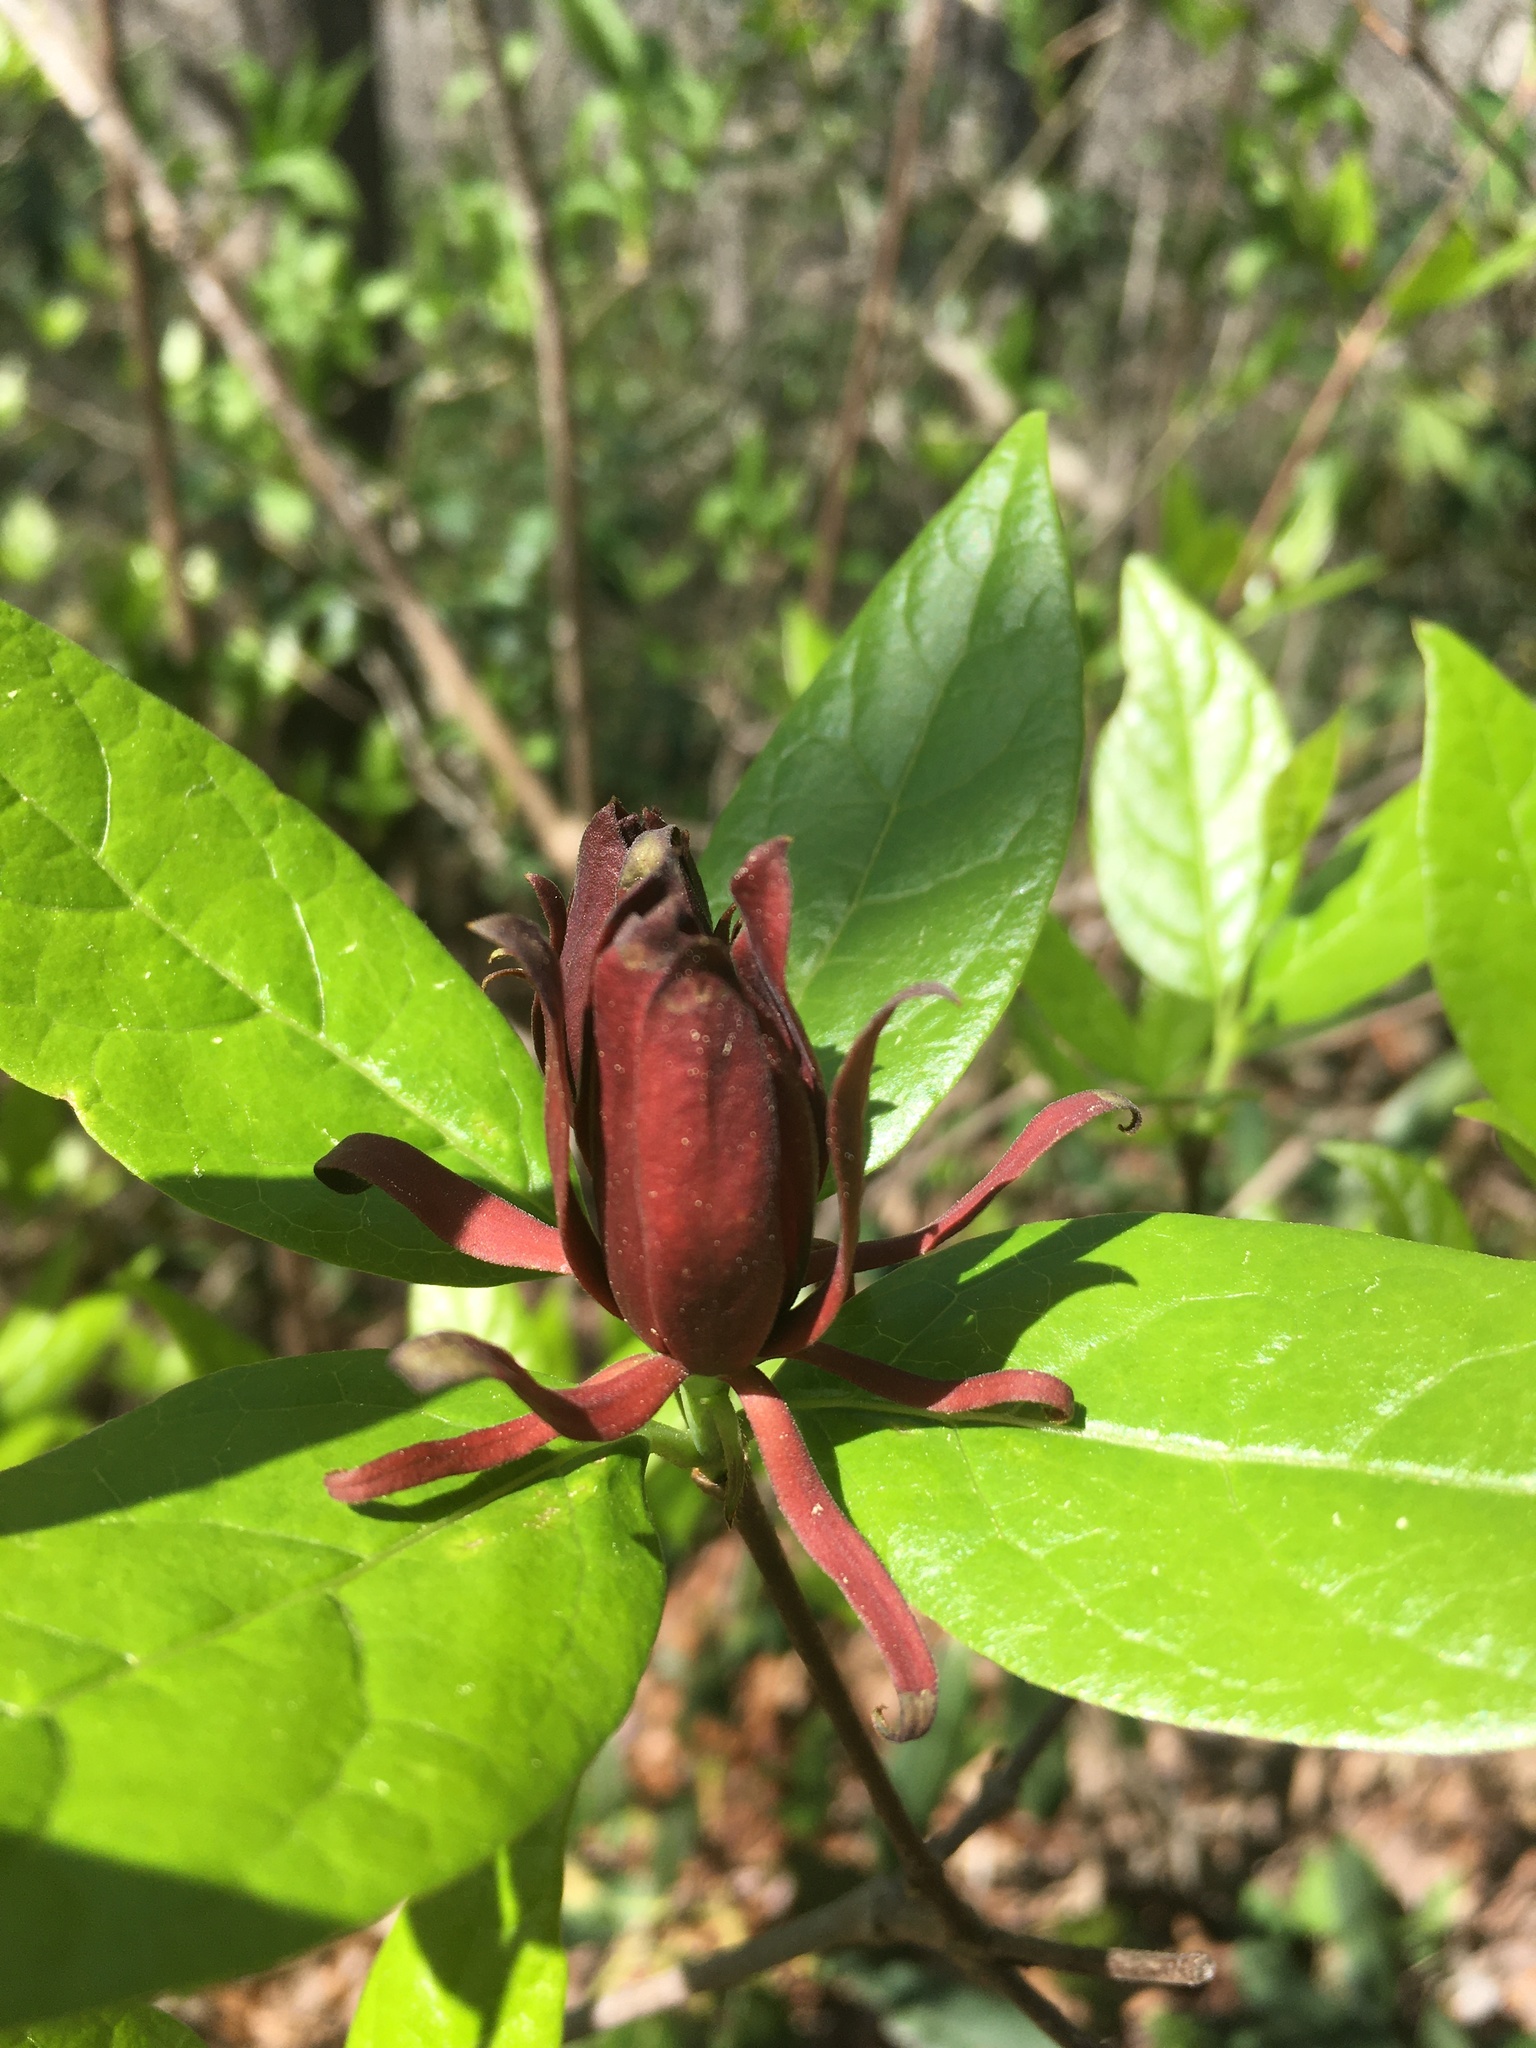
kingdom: Plantae
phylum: Tracheophyta
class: Magnoliopsida
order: Laurales
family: Calycanthaceae
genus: Calycanthus
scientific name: Calycanthus floridus
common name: Carolina-allspice
